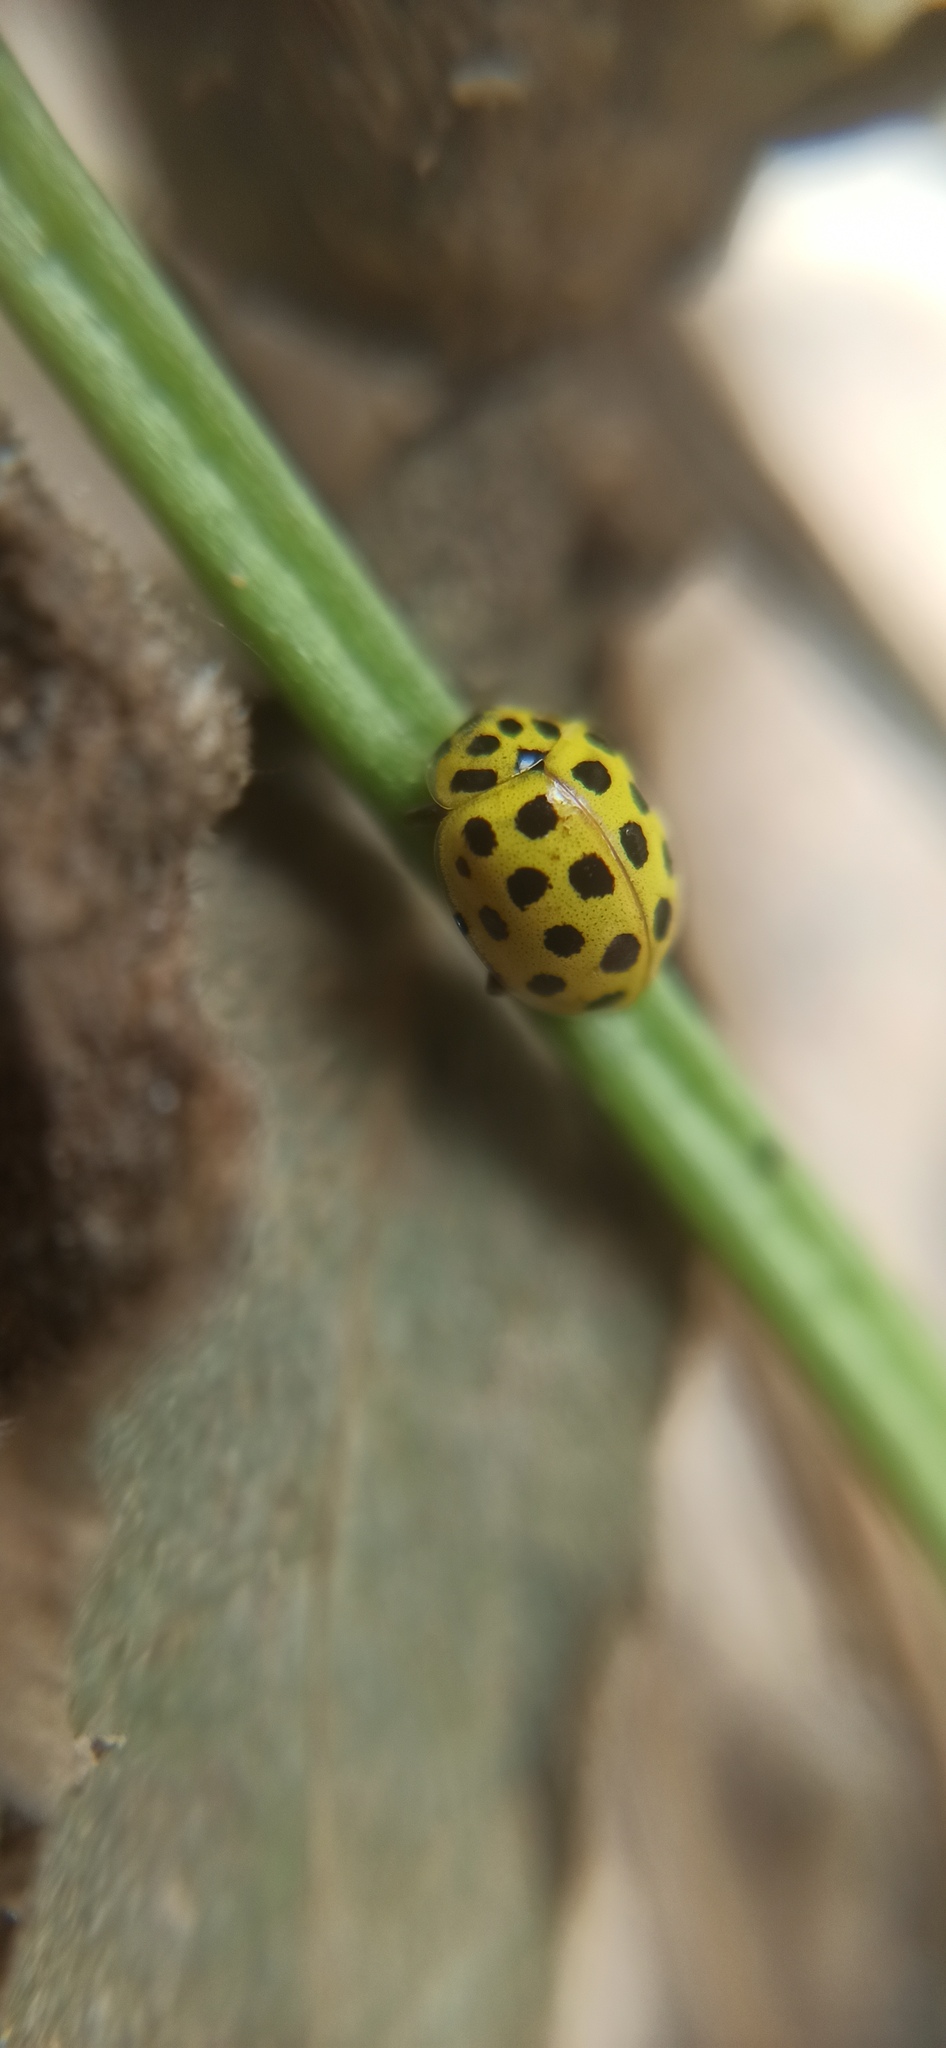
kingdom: Animalia
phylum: Arthropoda
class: Insecta
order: Coleoptera
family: Coccinellidae
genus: Psyllobora
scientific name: Psyllobora vigintiduopunctata
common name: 22-spot ladybird
